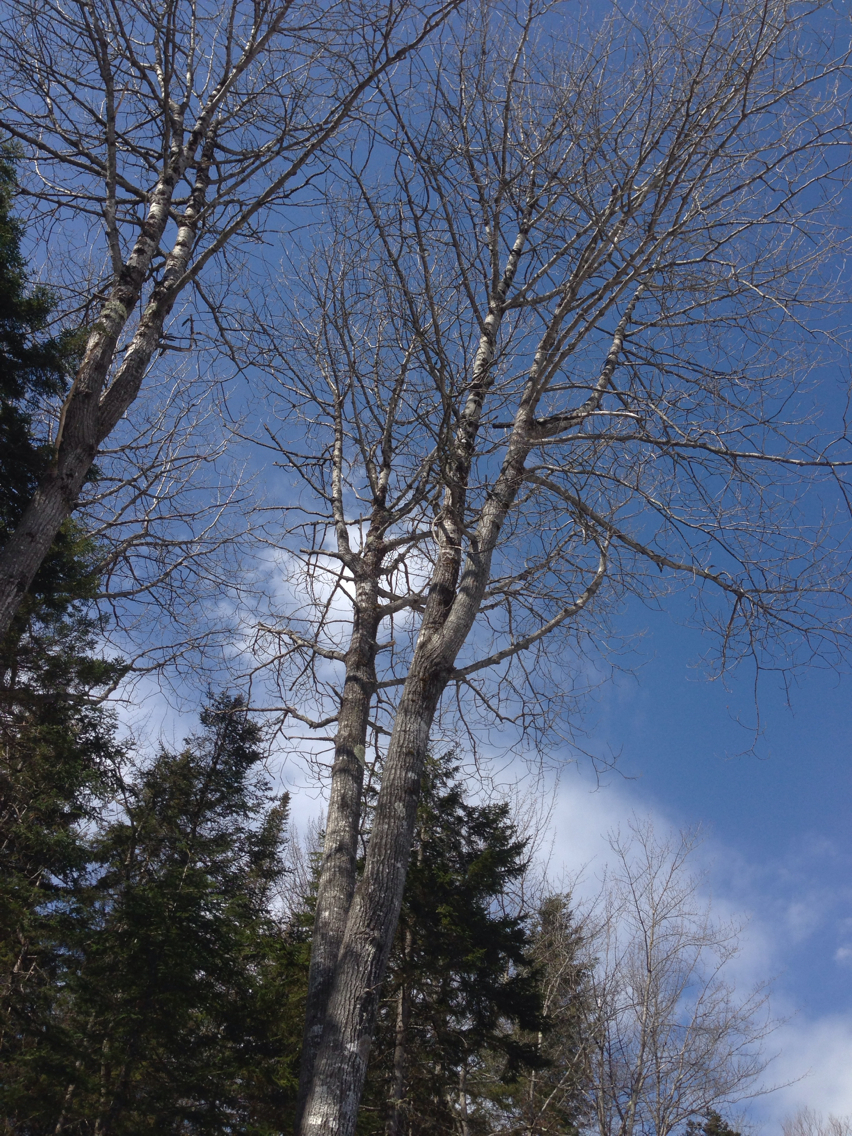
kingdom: Plantae
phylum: Tracheophyta
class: Magnoliopsida
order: Malpighiales
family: Salicaceae
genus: Populus
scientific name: Populus grandidentata
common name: Bigtooth aspen
